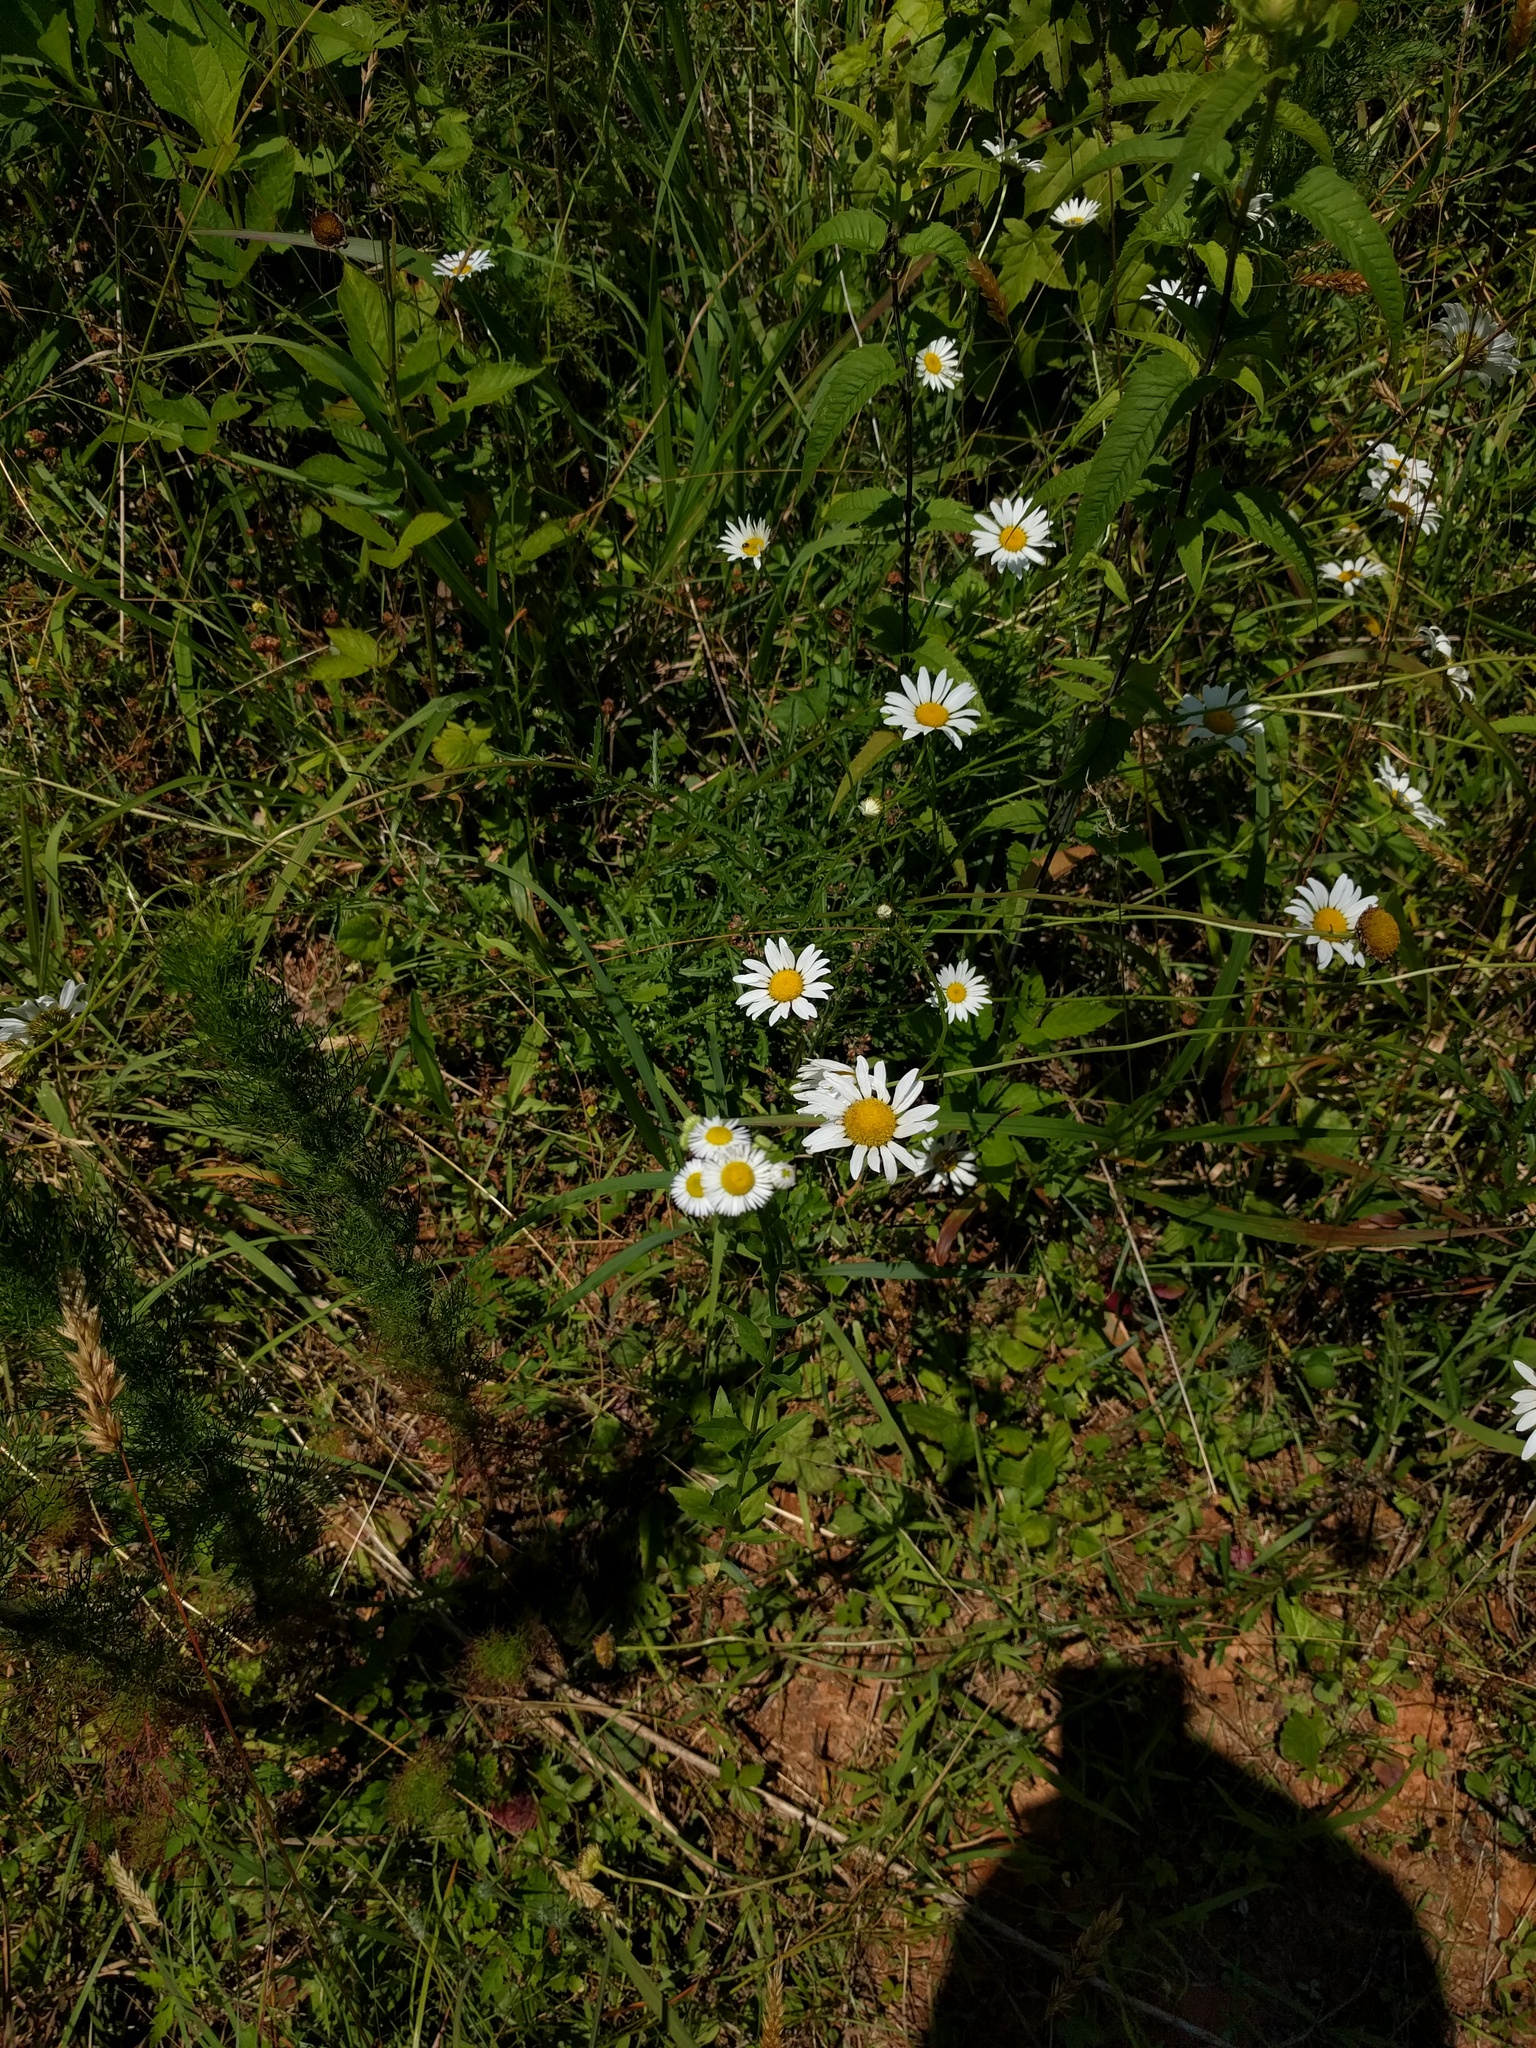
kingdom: Plantae
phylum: Tracheophyta
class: Magnoliopsida
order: Asterales
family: Asteraceae
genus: Leucanthemum
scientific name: Leucanthemum vulgare
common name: Oxeye daisy
